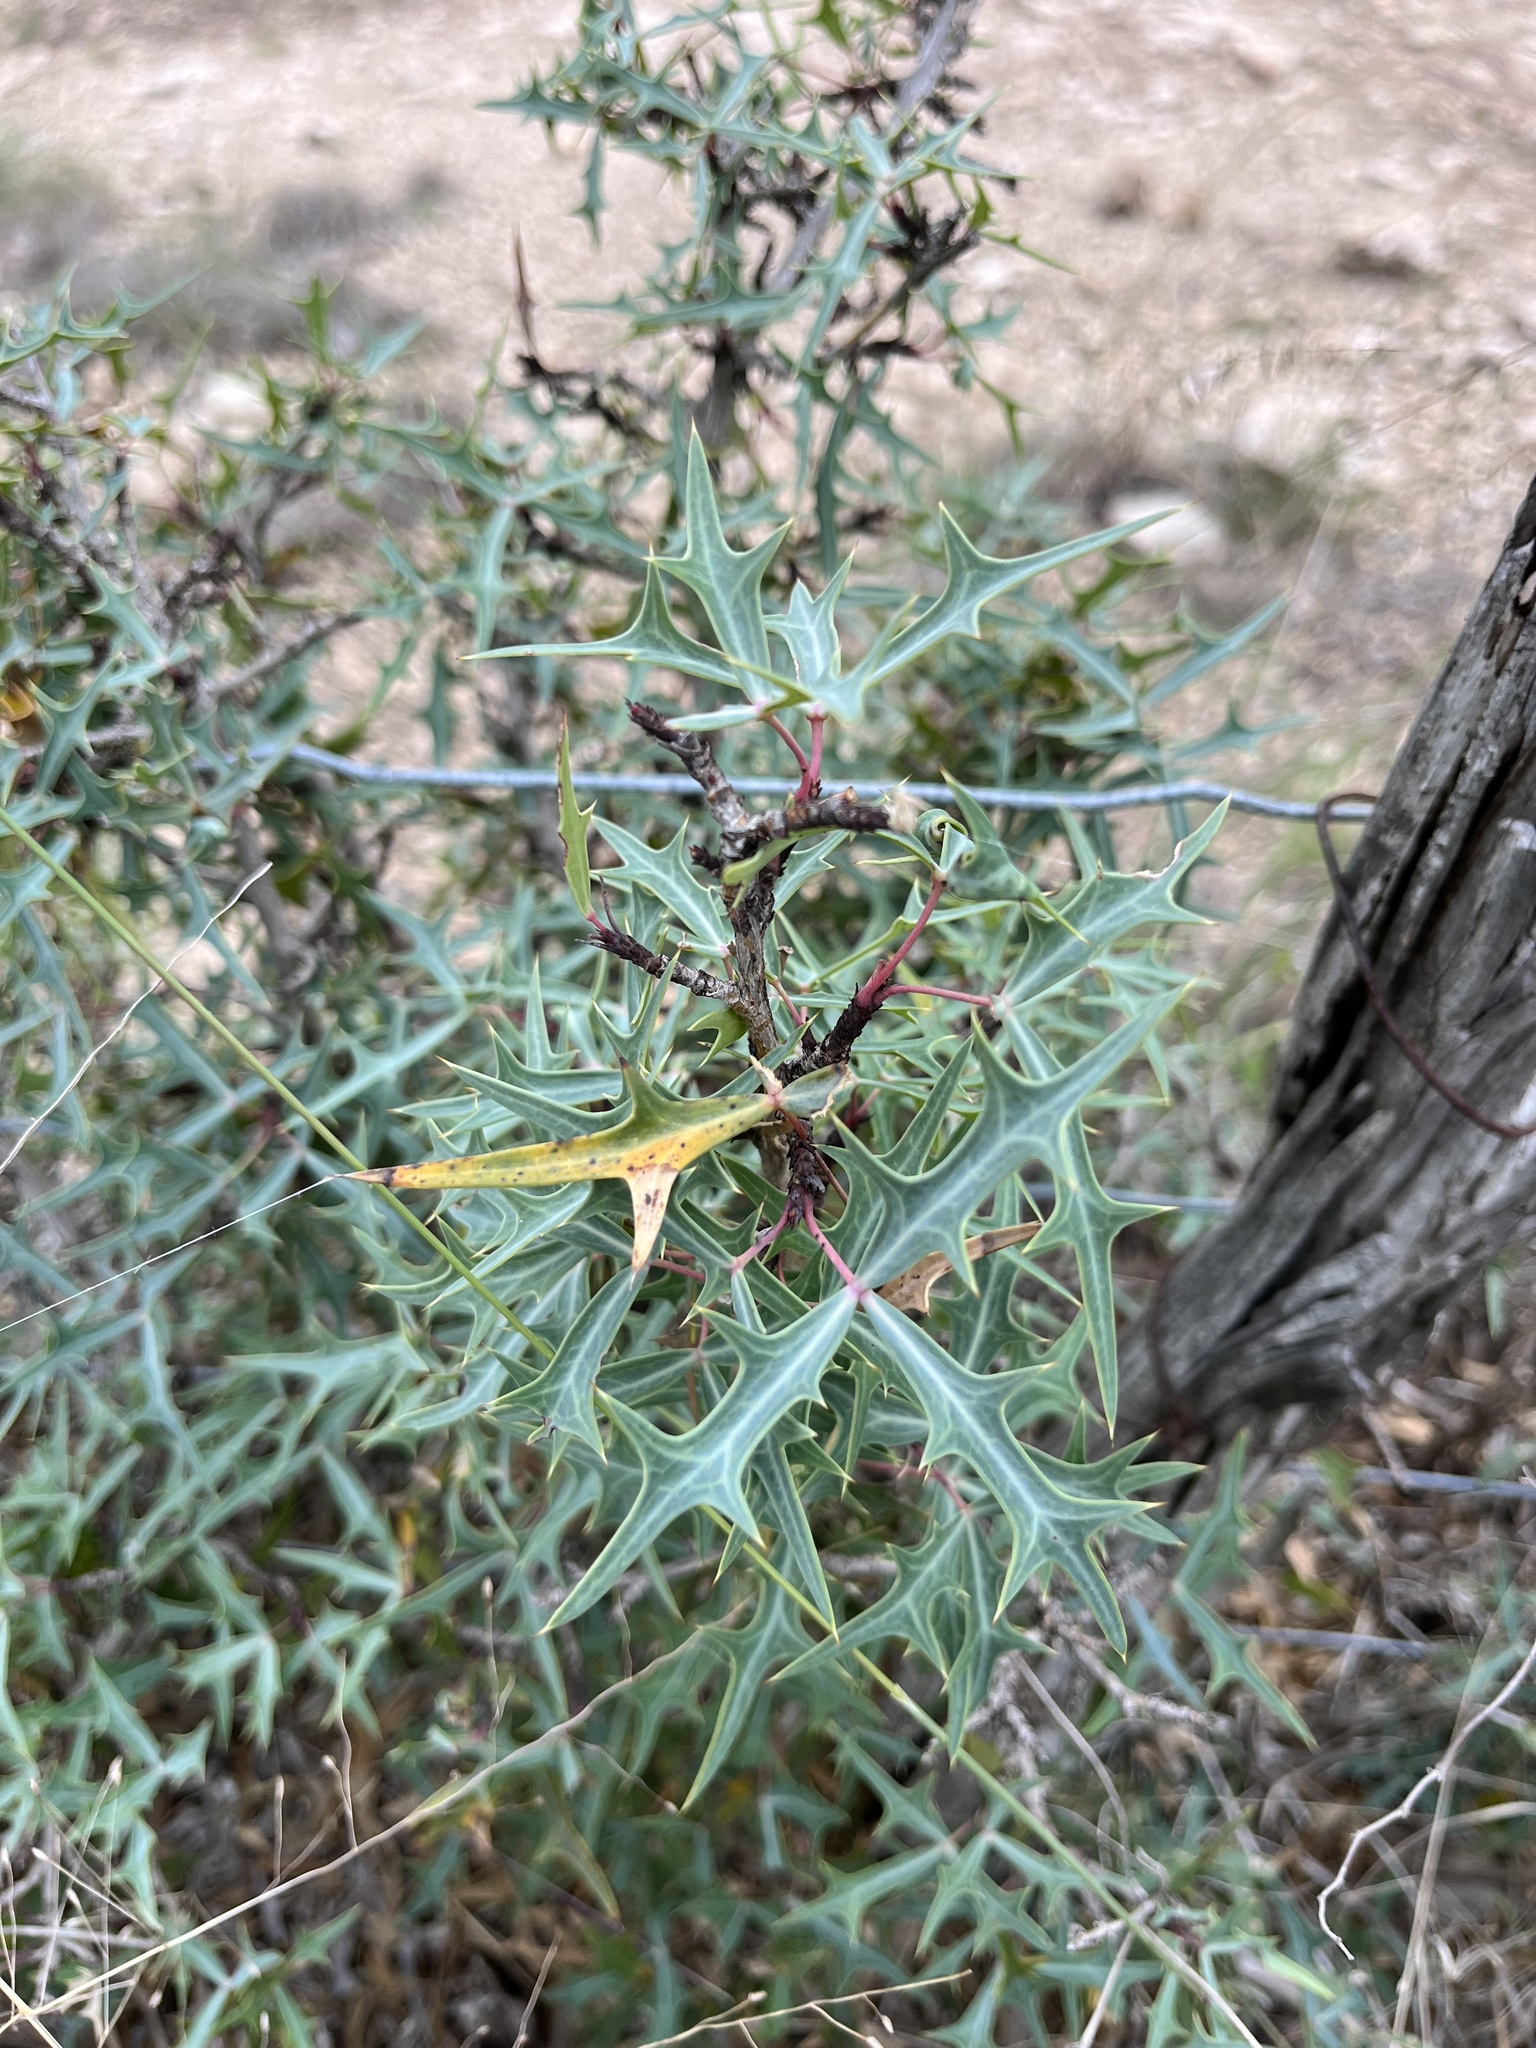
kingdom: Plantae
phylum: Tracheophyta
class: Magnoliopsida
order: Ranunculales
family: Berberidaceae
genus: Alloberberis
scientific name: Alloberberis trifoliolata
